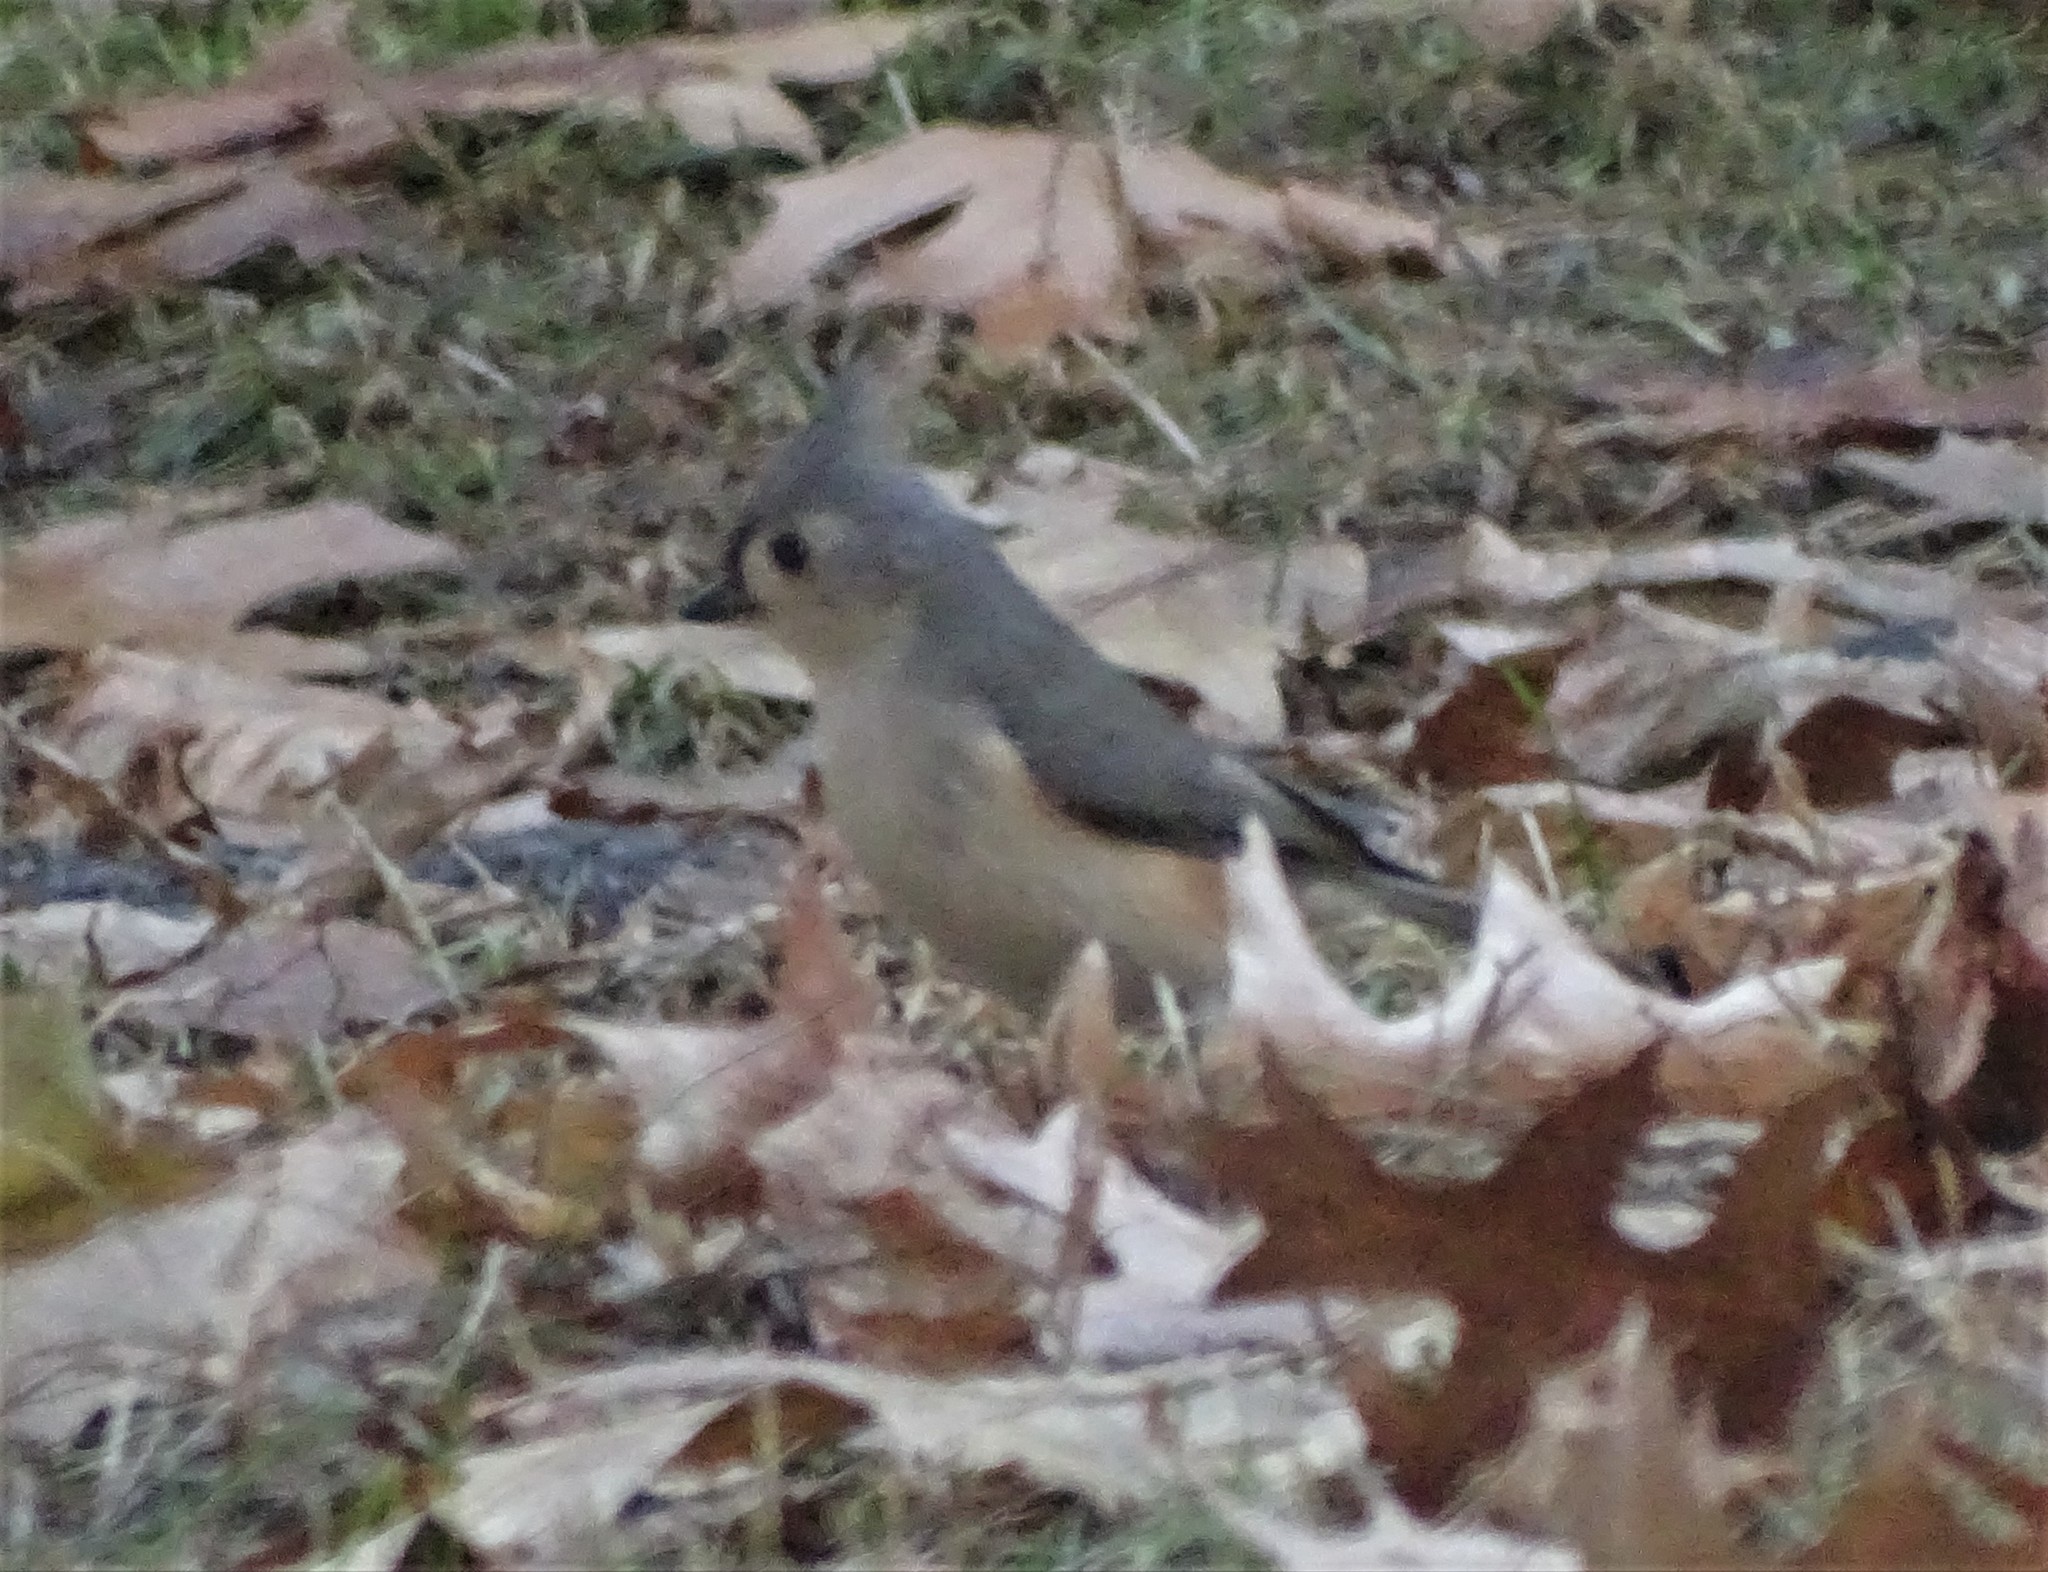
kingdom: Animalia
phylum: Chordata
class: Aves
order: Passeriformes
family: Paridae
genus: Baeolophus
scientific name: Baeolophus bicolor
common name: Tufted titmouse
